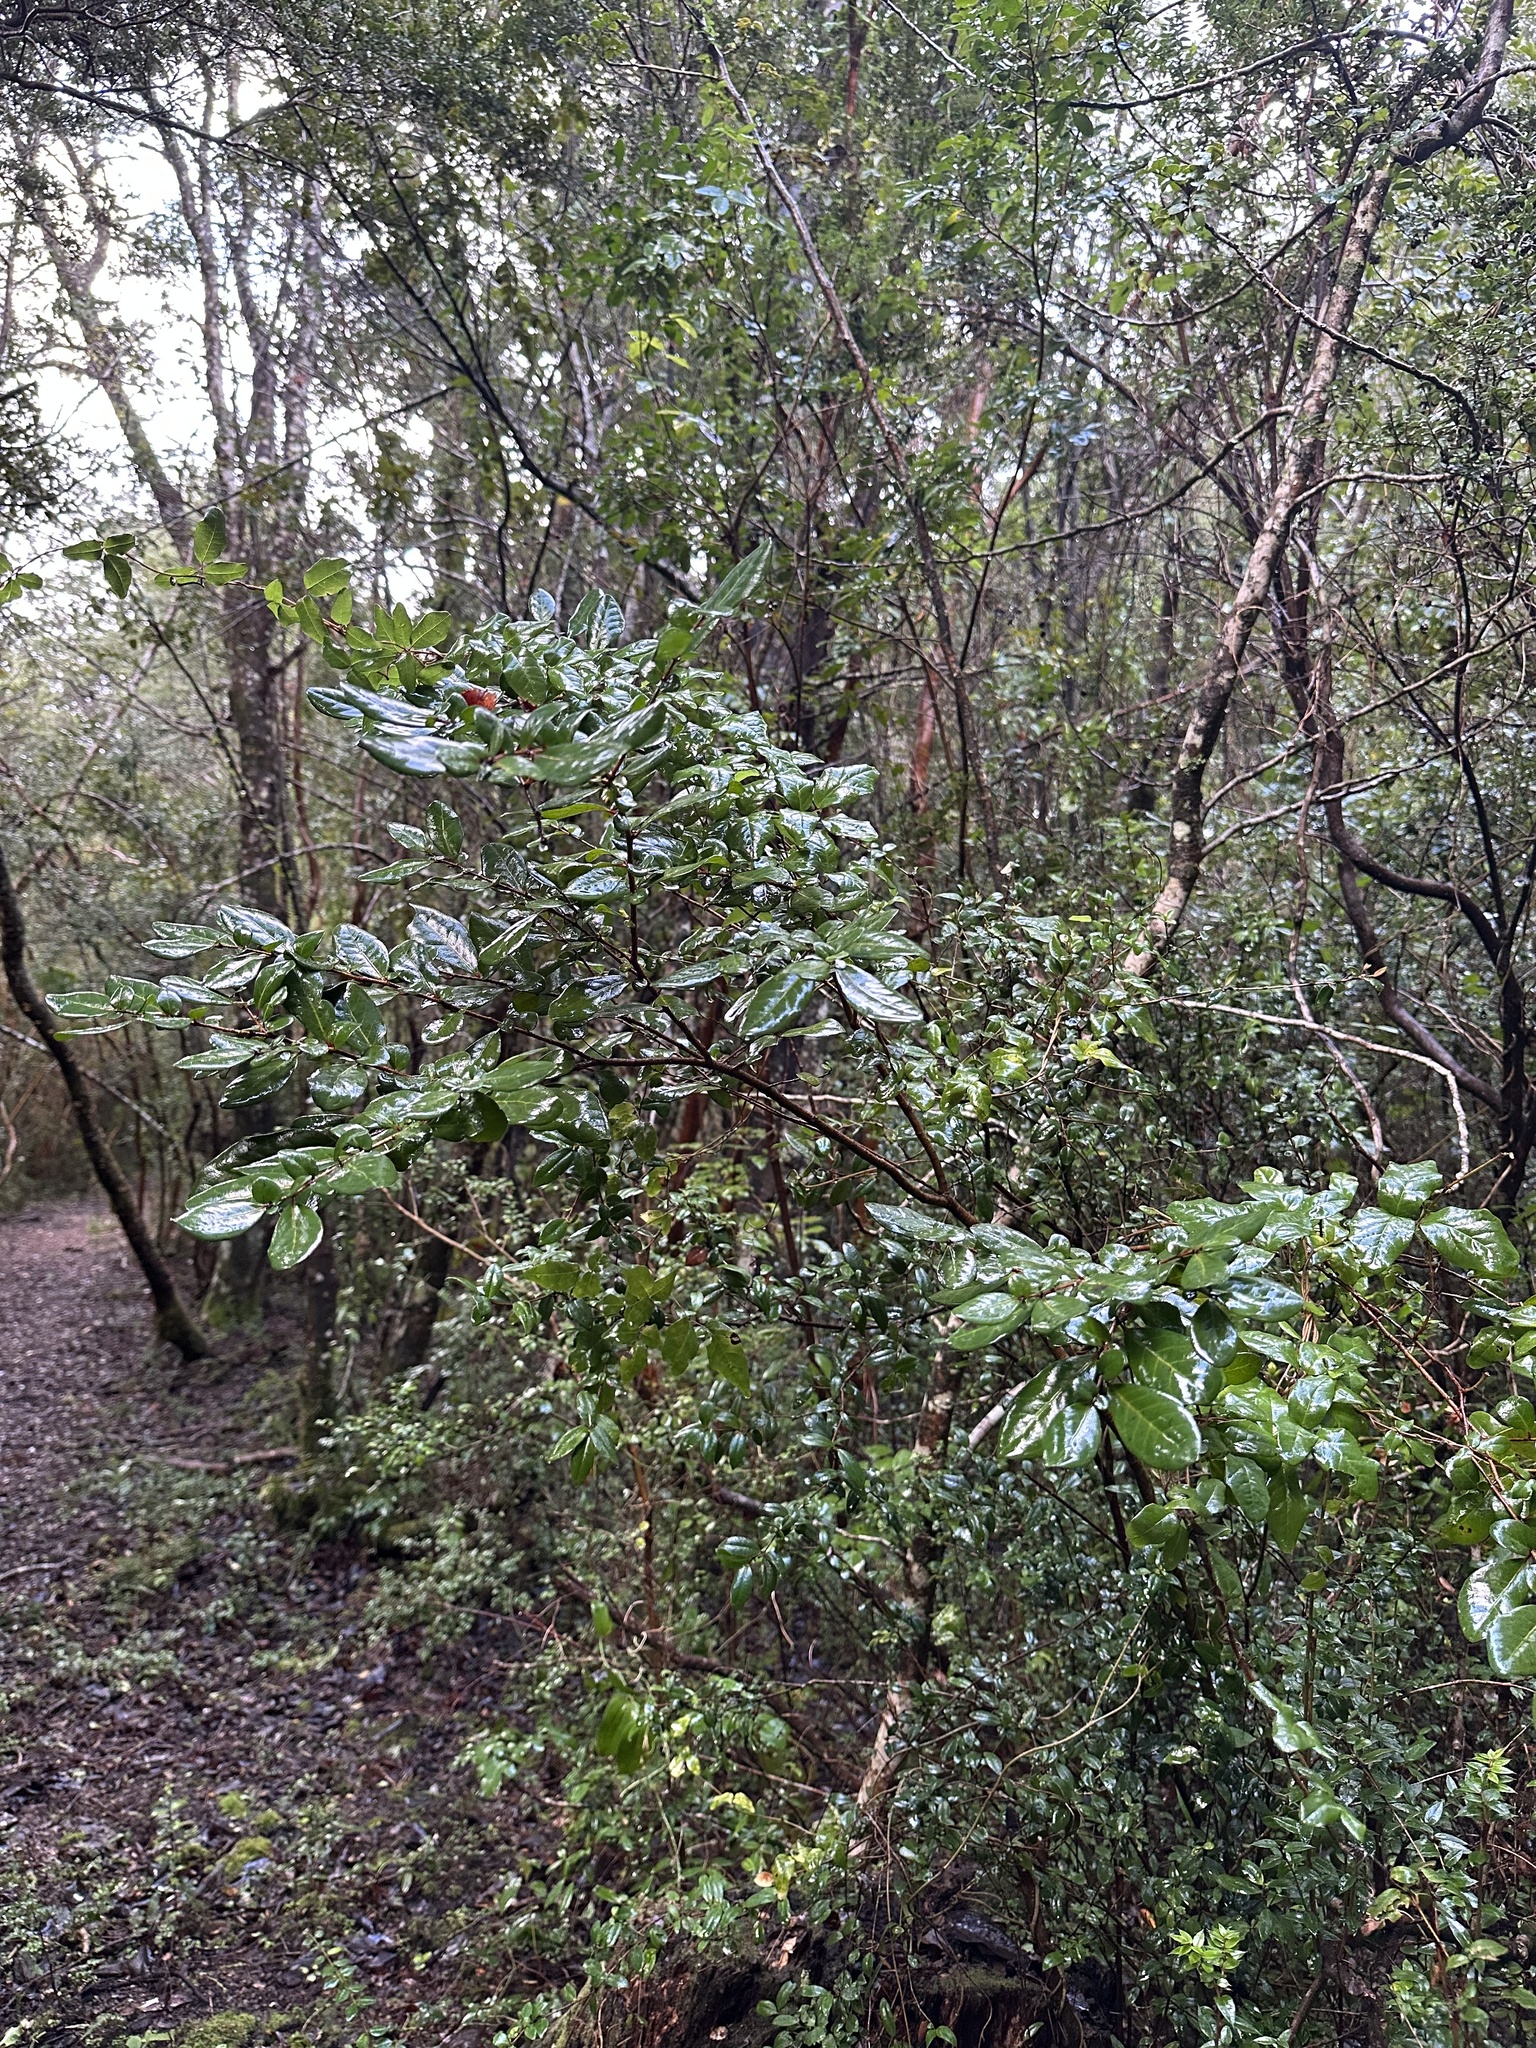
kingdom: Plantae
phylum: Tracheophyta
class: Magnoliopsida
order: Malpighiales
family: Salicaceae
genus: Azara
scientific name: Azara integrifolia
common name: Goldspire
